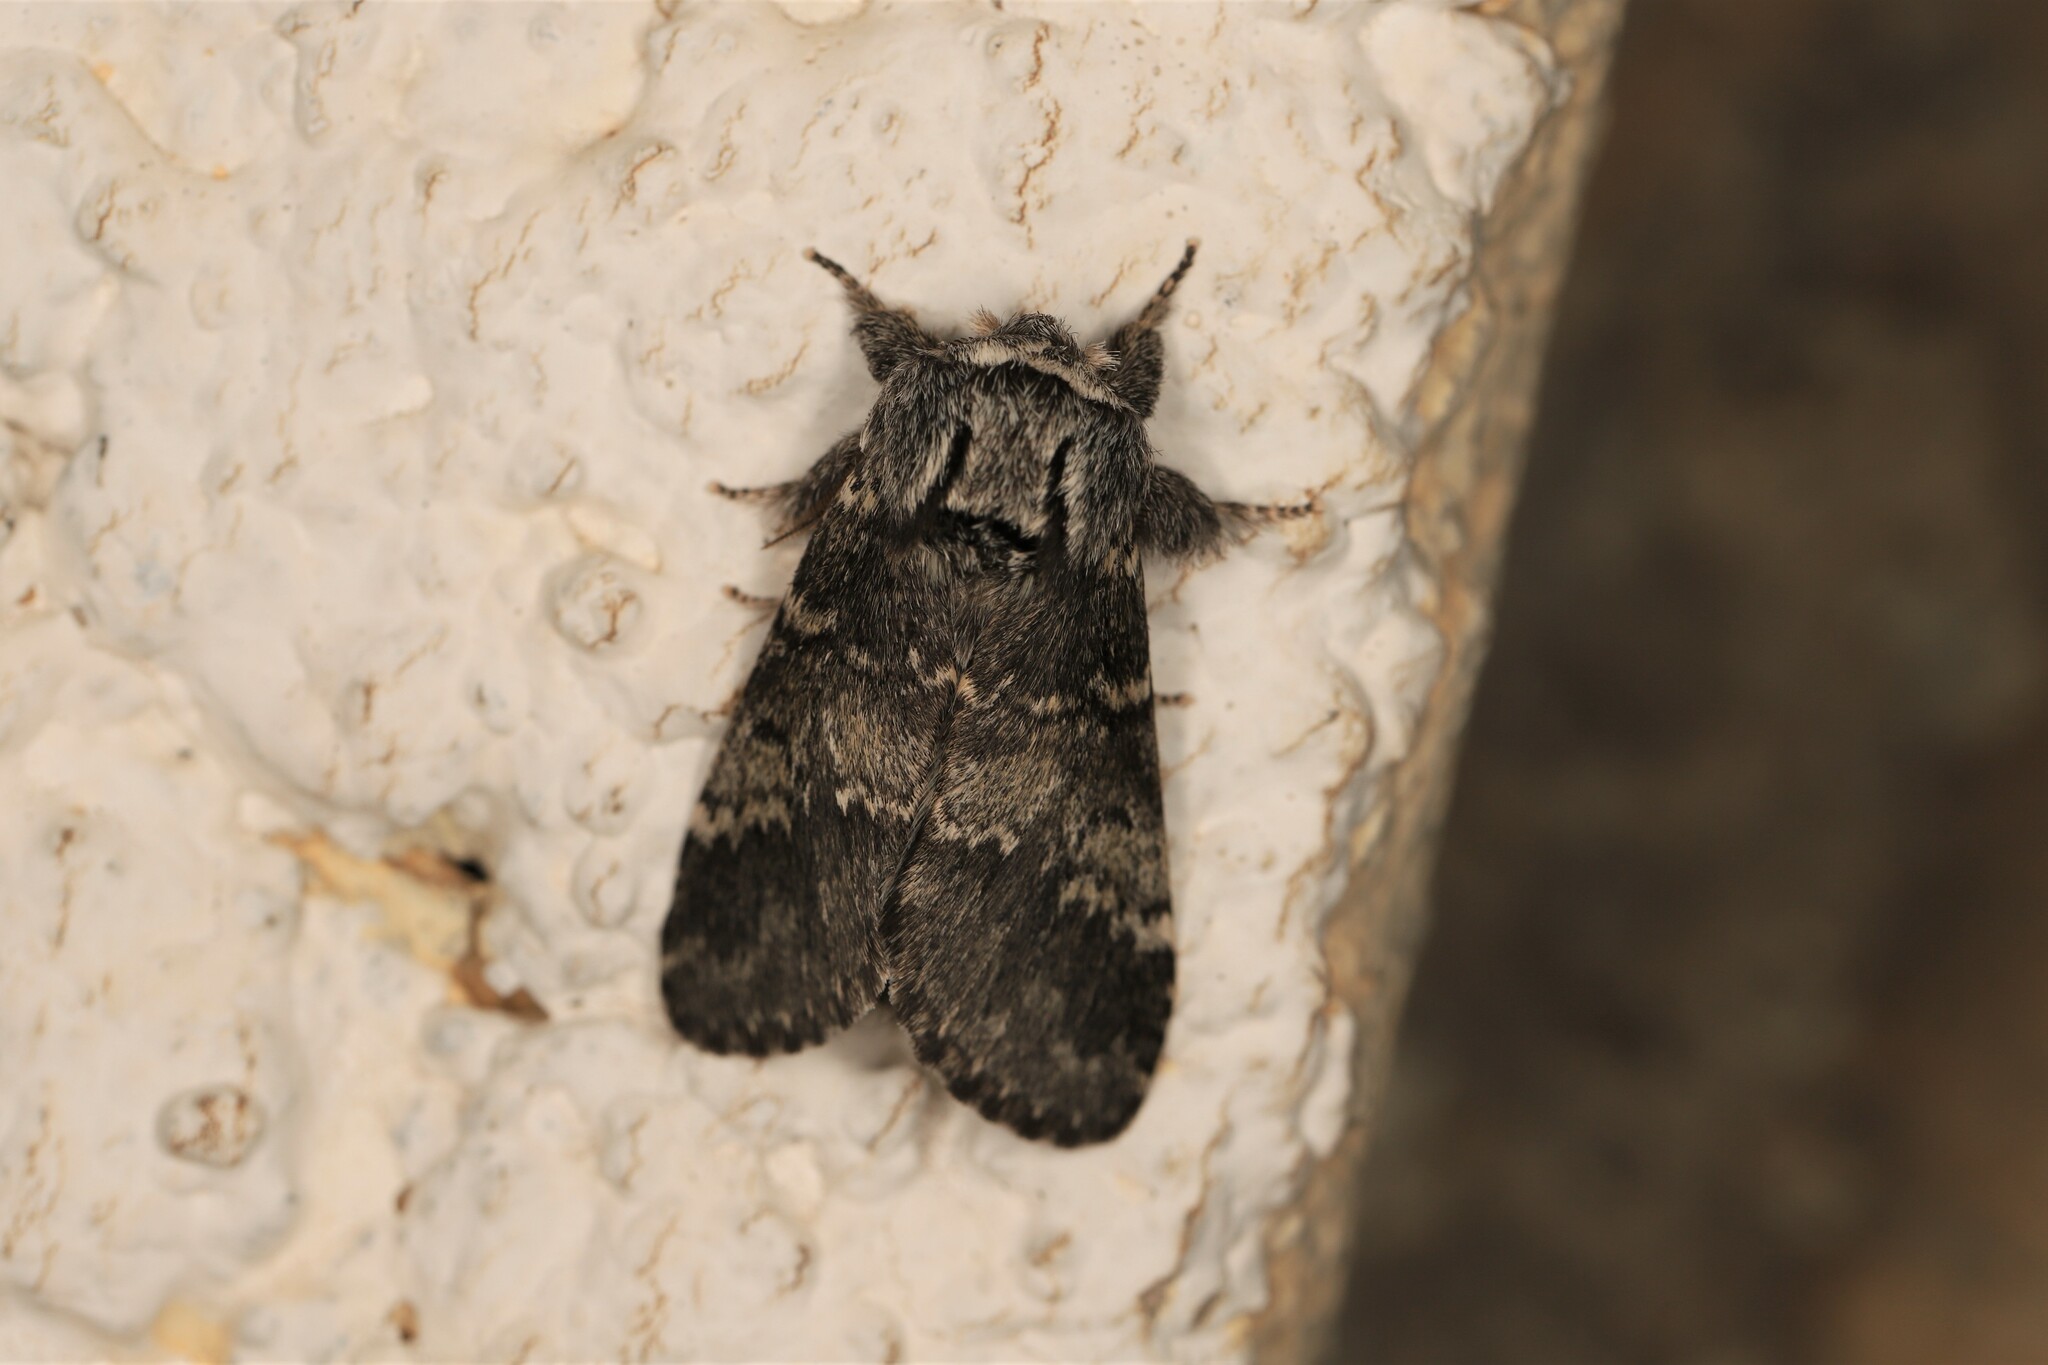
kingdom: Animalia
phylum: Arthropoda
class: Insecta
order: Lepidoptera
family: Notodontidae
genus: Drymonia
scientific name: Drymonia ruficornis
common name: Lunar marbled brown
